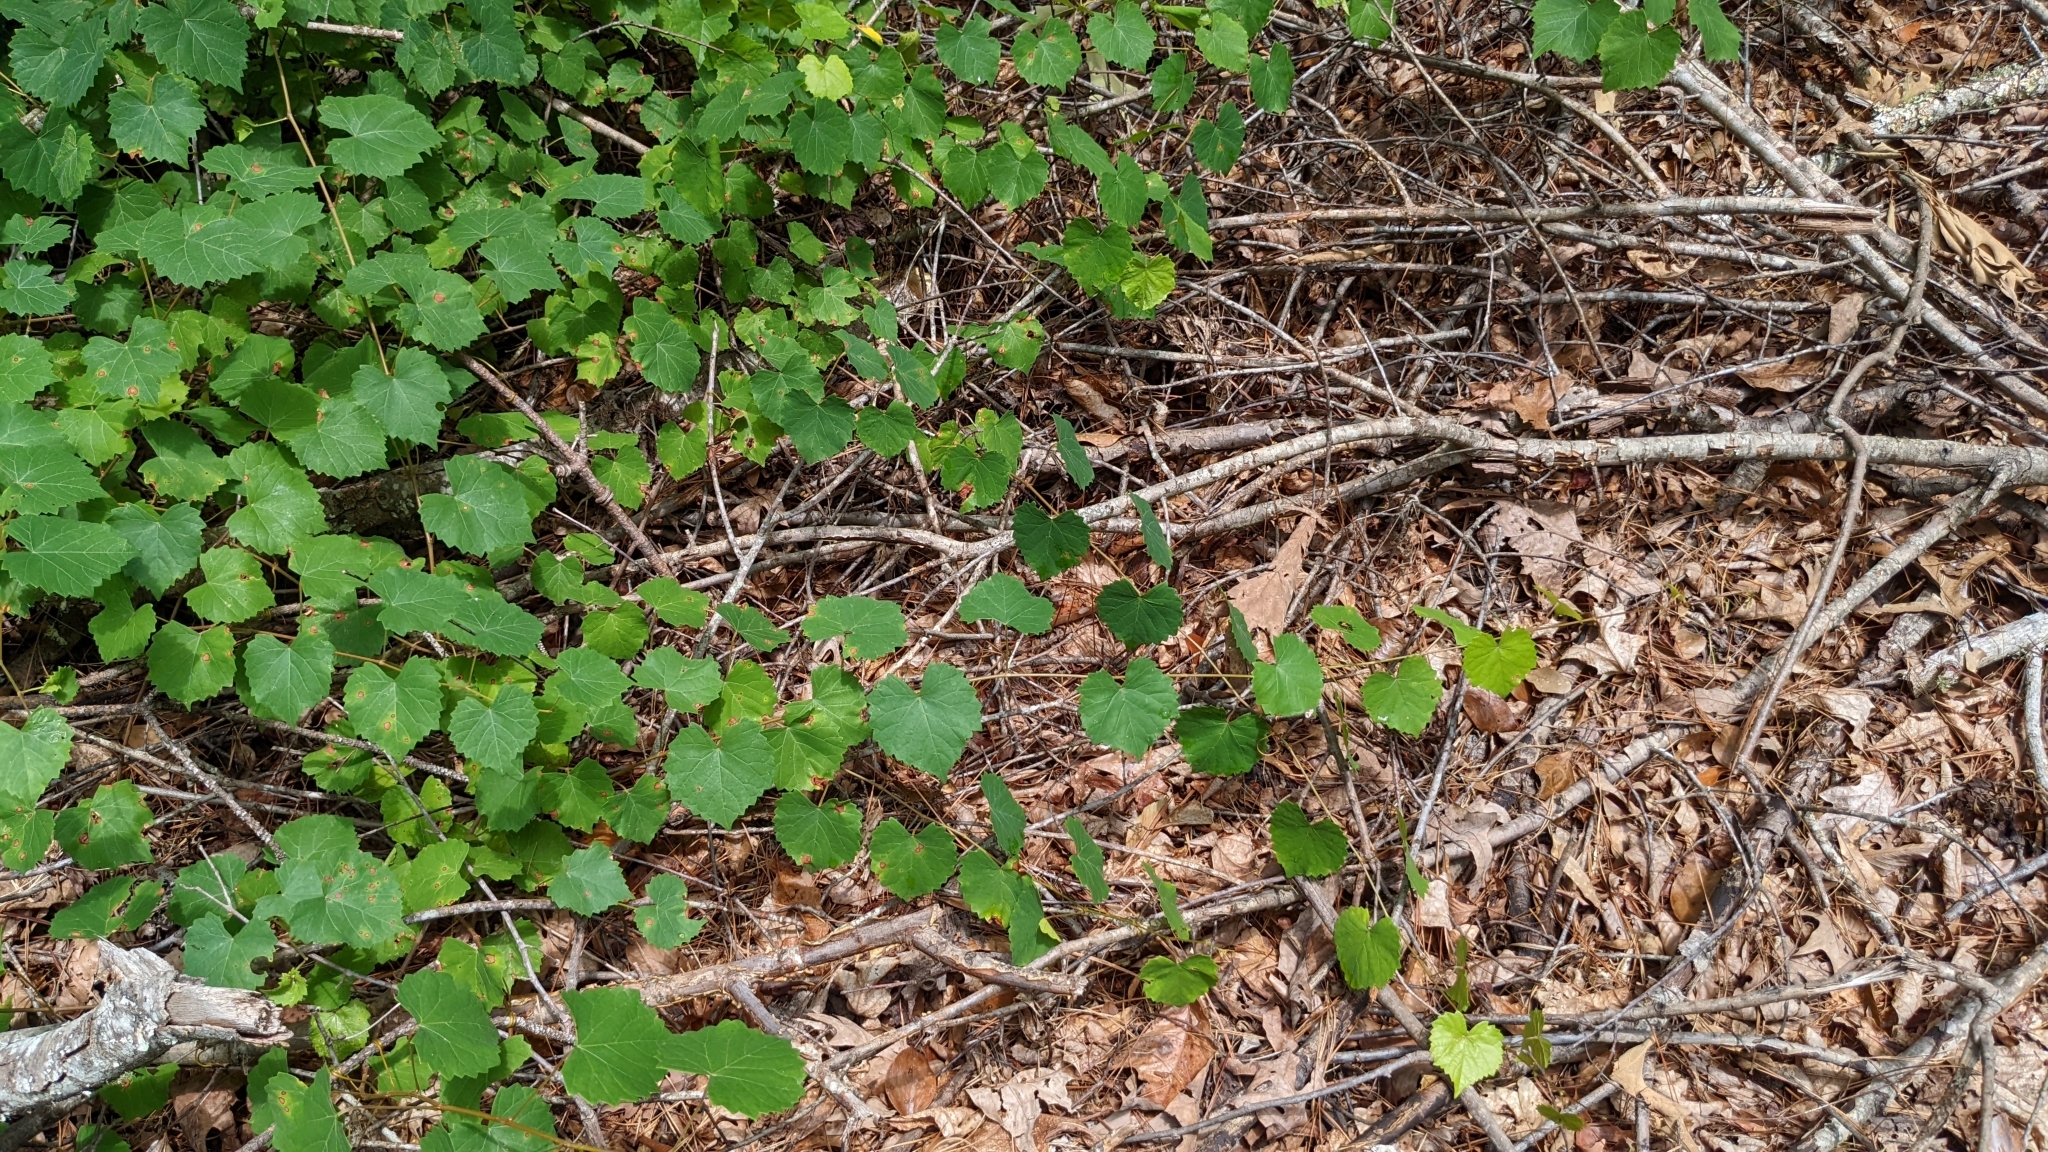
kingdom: Plantae
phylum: Tracheophyta
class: Magnoliopsida
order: Vitales
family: Vitaceae
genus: Vitis
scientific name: Vitis rotundifolia
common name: Muscadine grape
